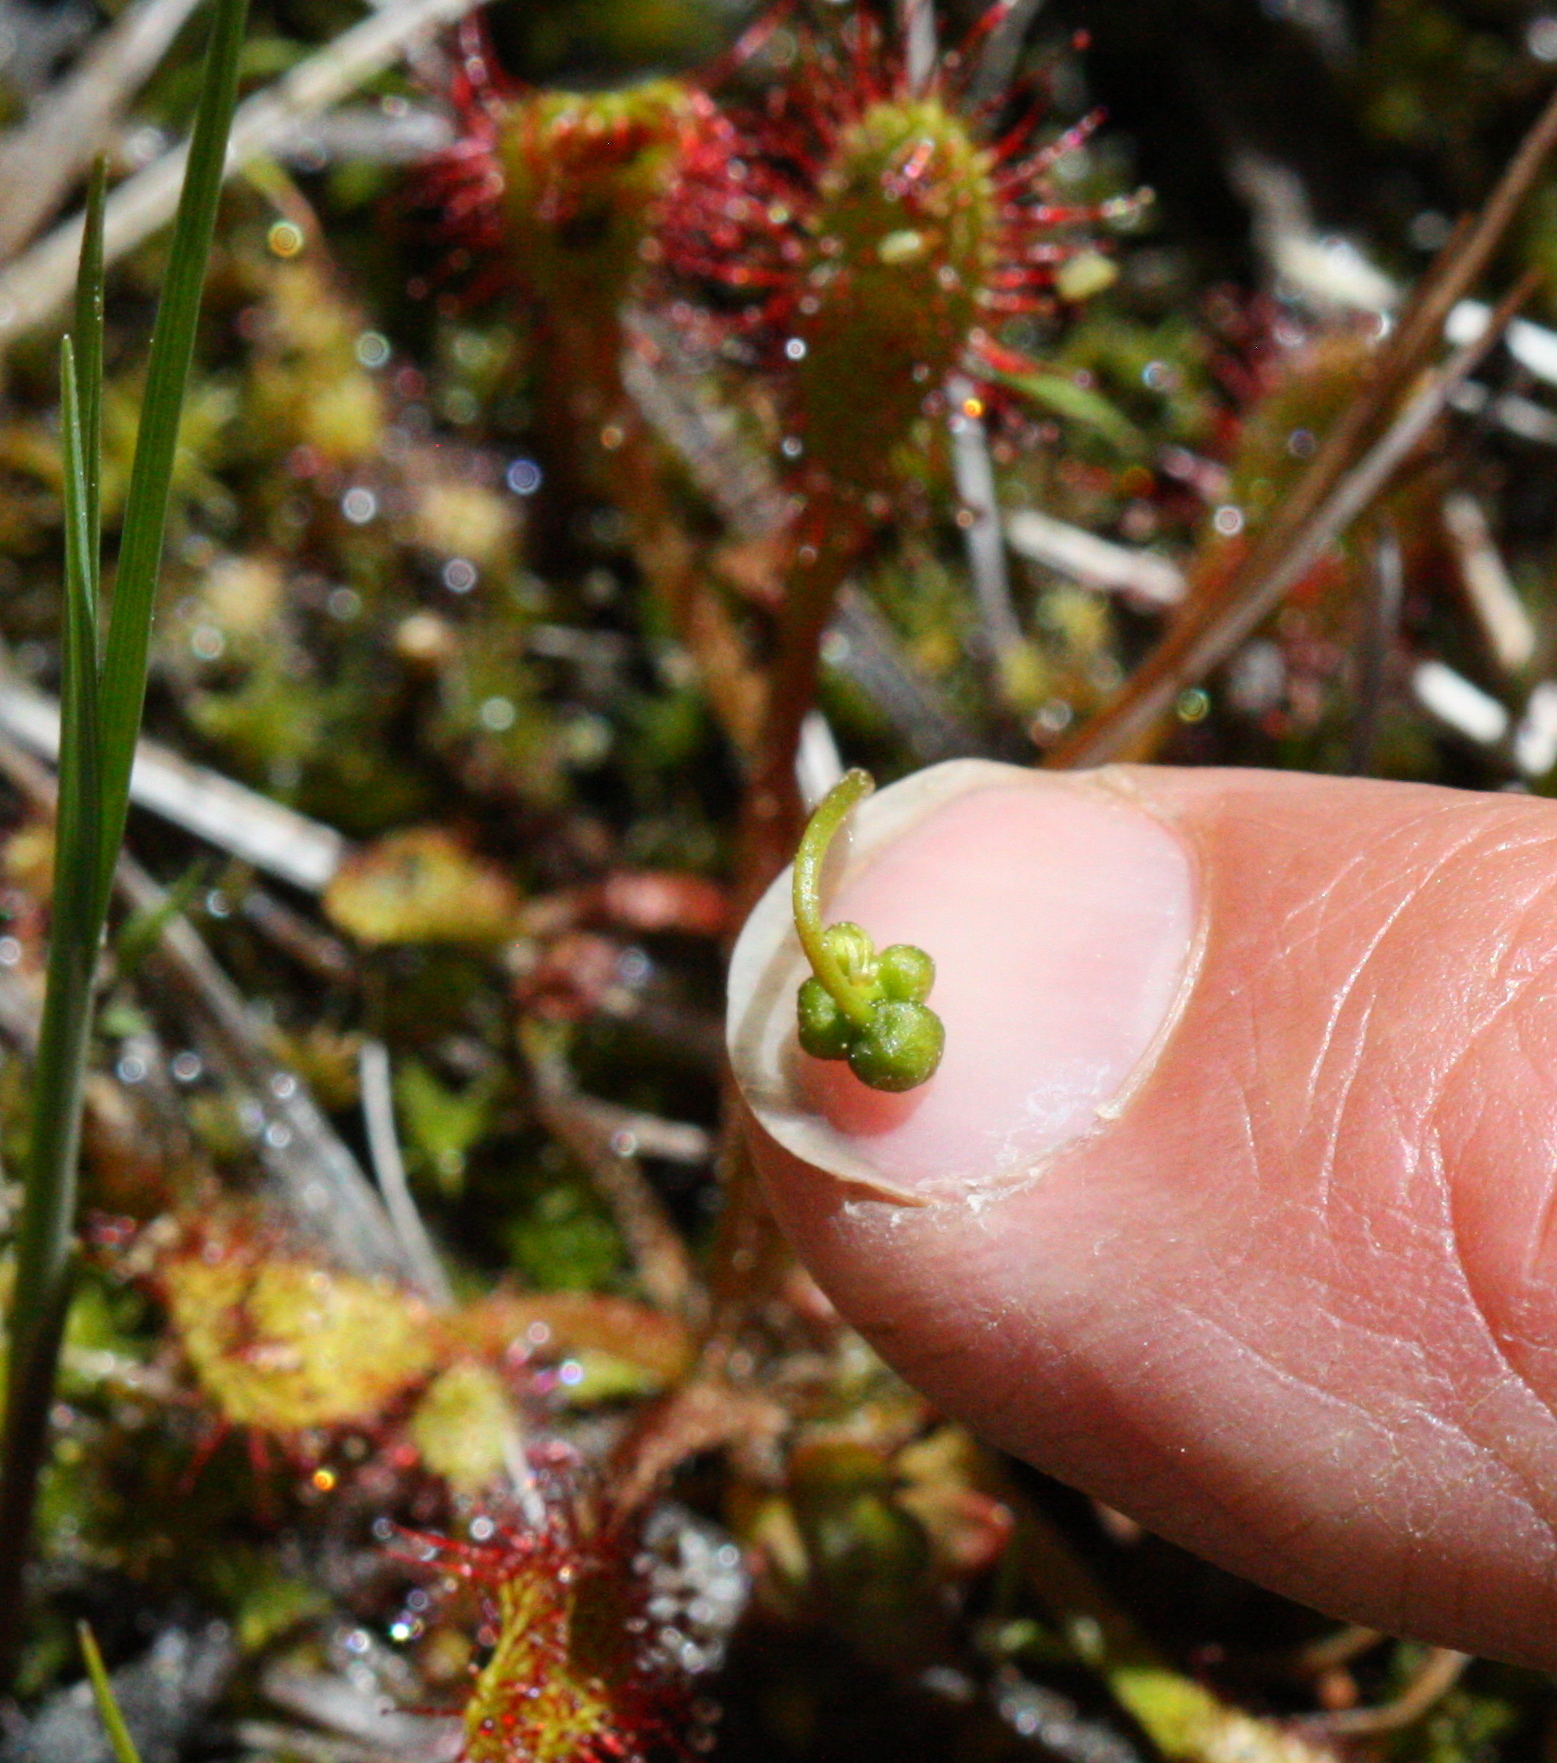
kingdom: Plantae
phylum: Tracheophyta
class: Magnoliopsida
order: Caryophyllales
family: Droseraceae
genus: Drosera
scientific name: Drosera anglica
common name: Great sundew
